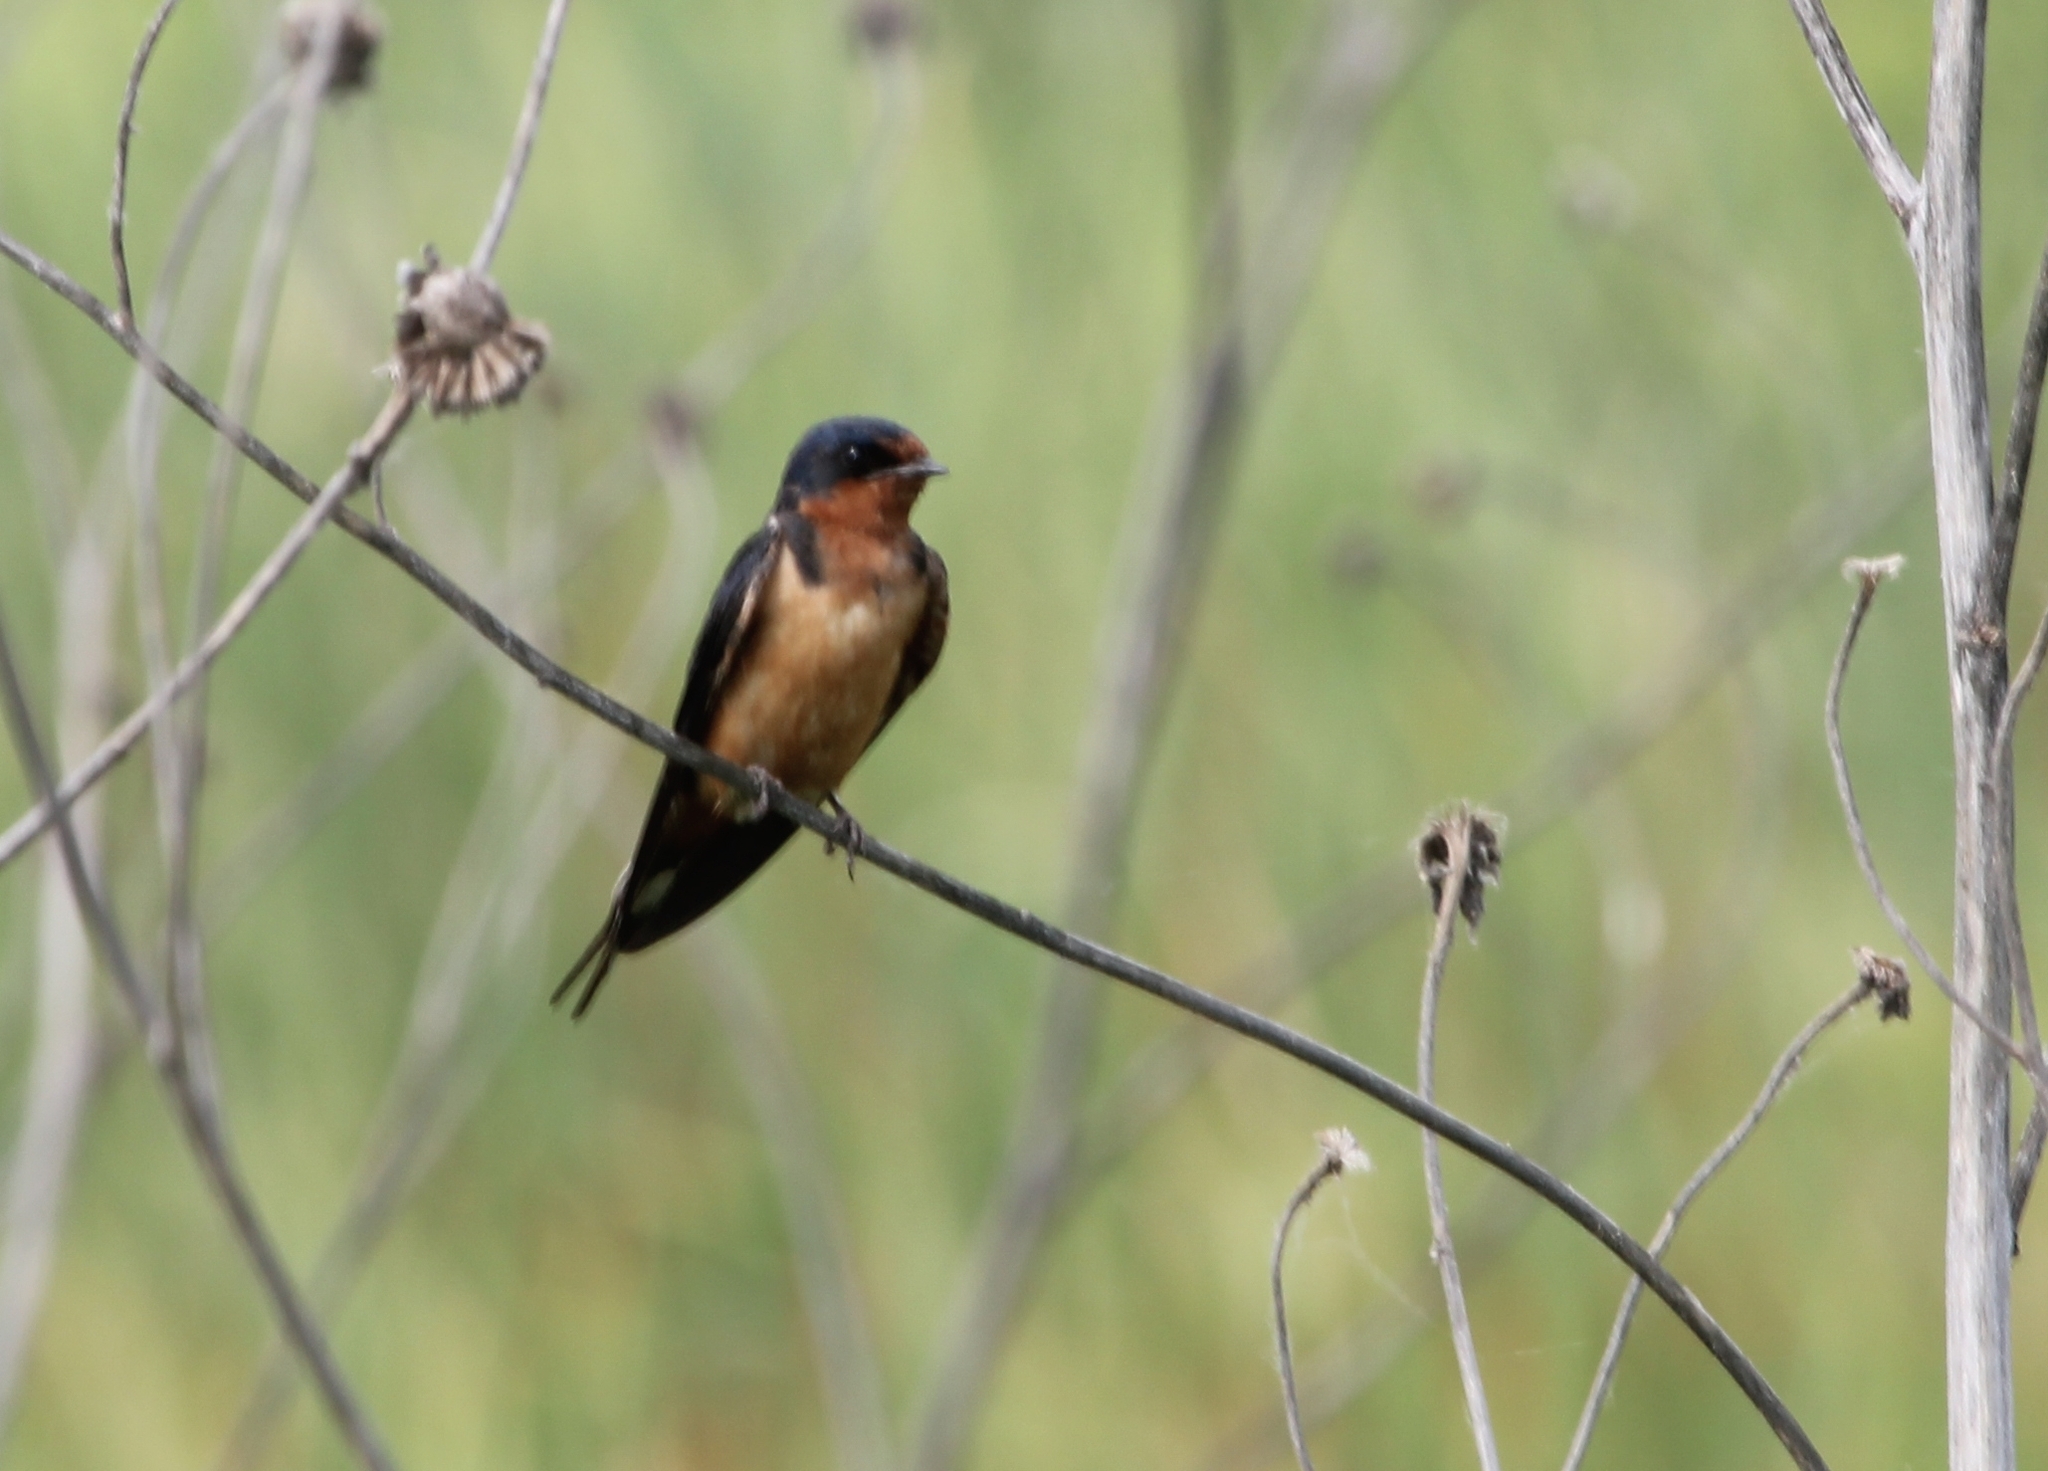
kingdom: Animalia
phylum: Chordata
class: Aves
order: Passeriformes
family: Hirundinidae
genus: Hirundo
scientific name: Hirundo rustica
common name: Barn swallow
